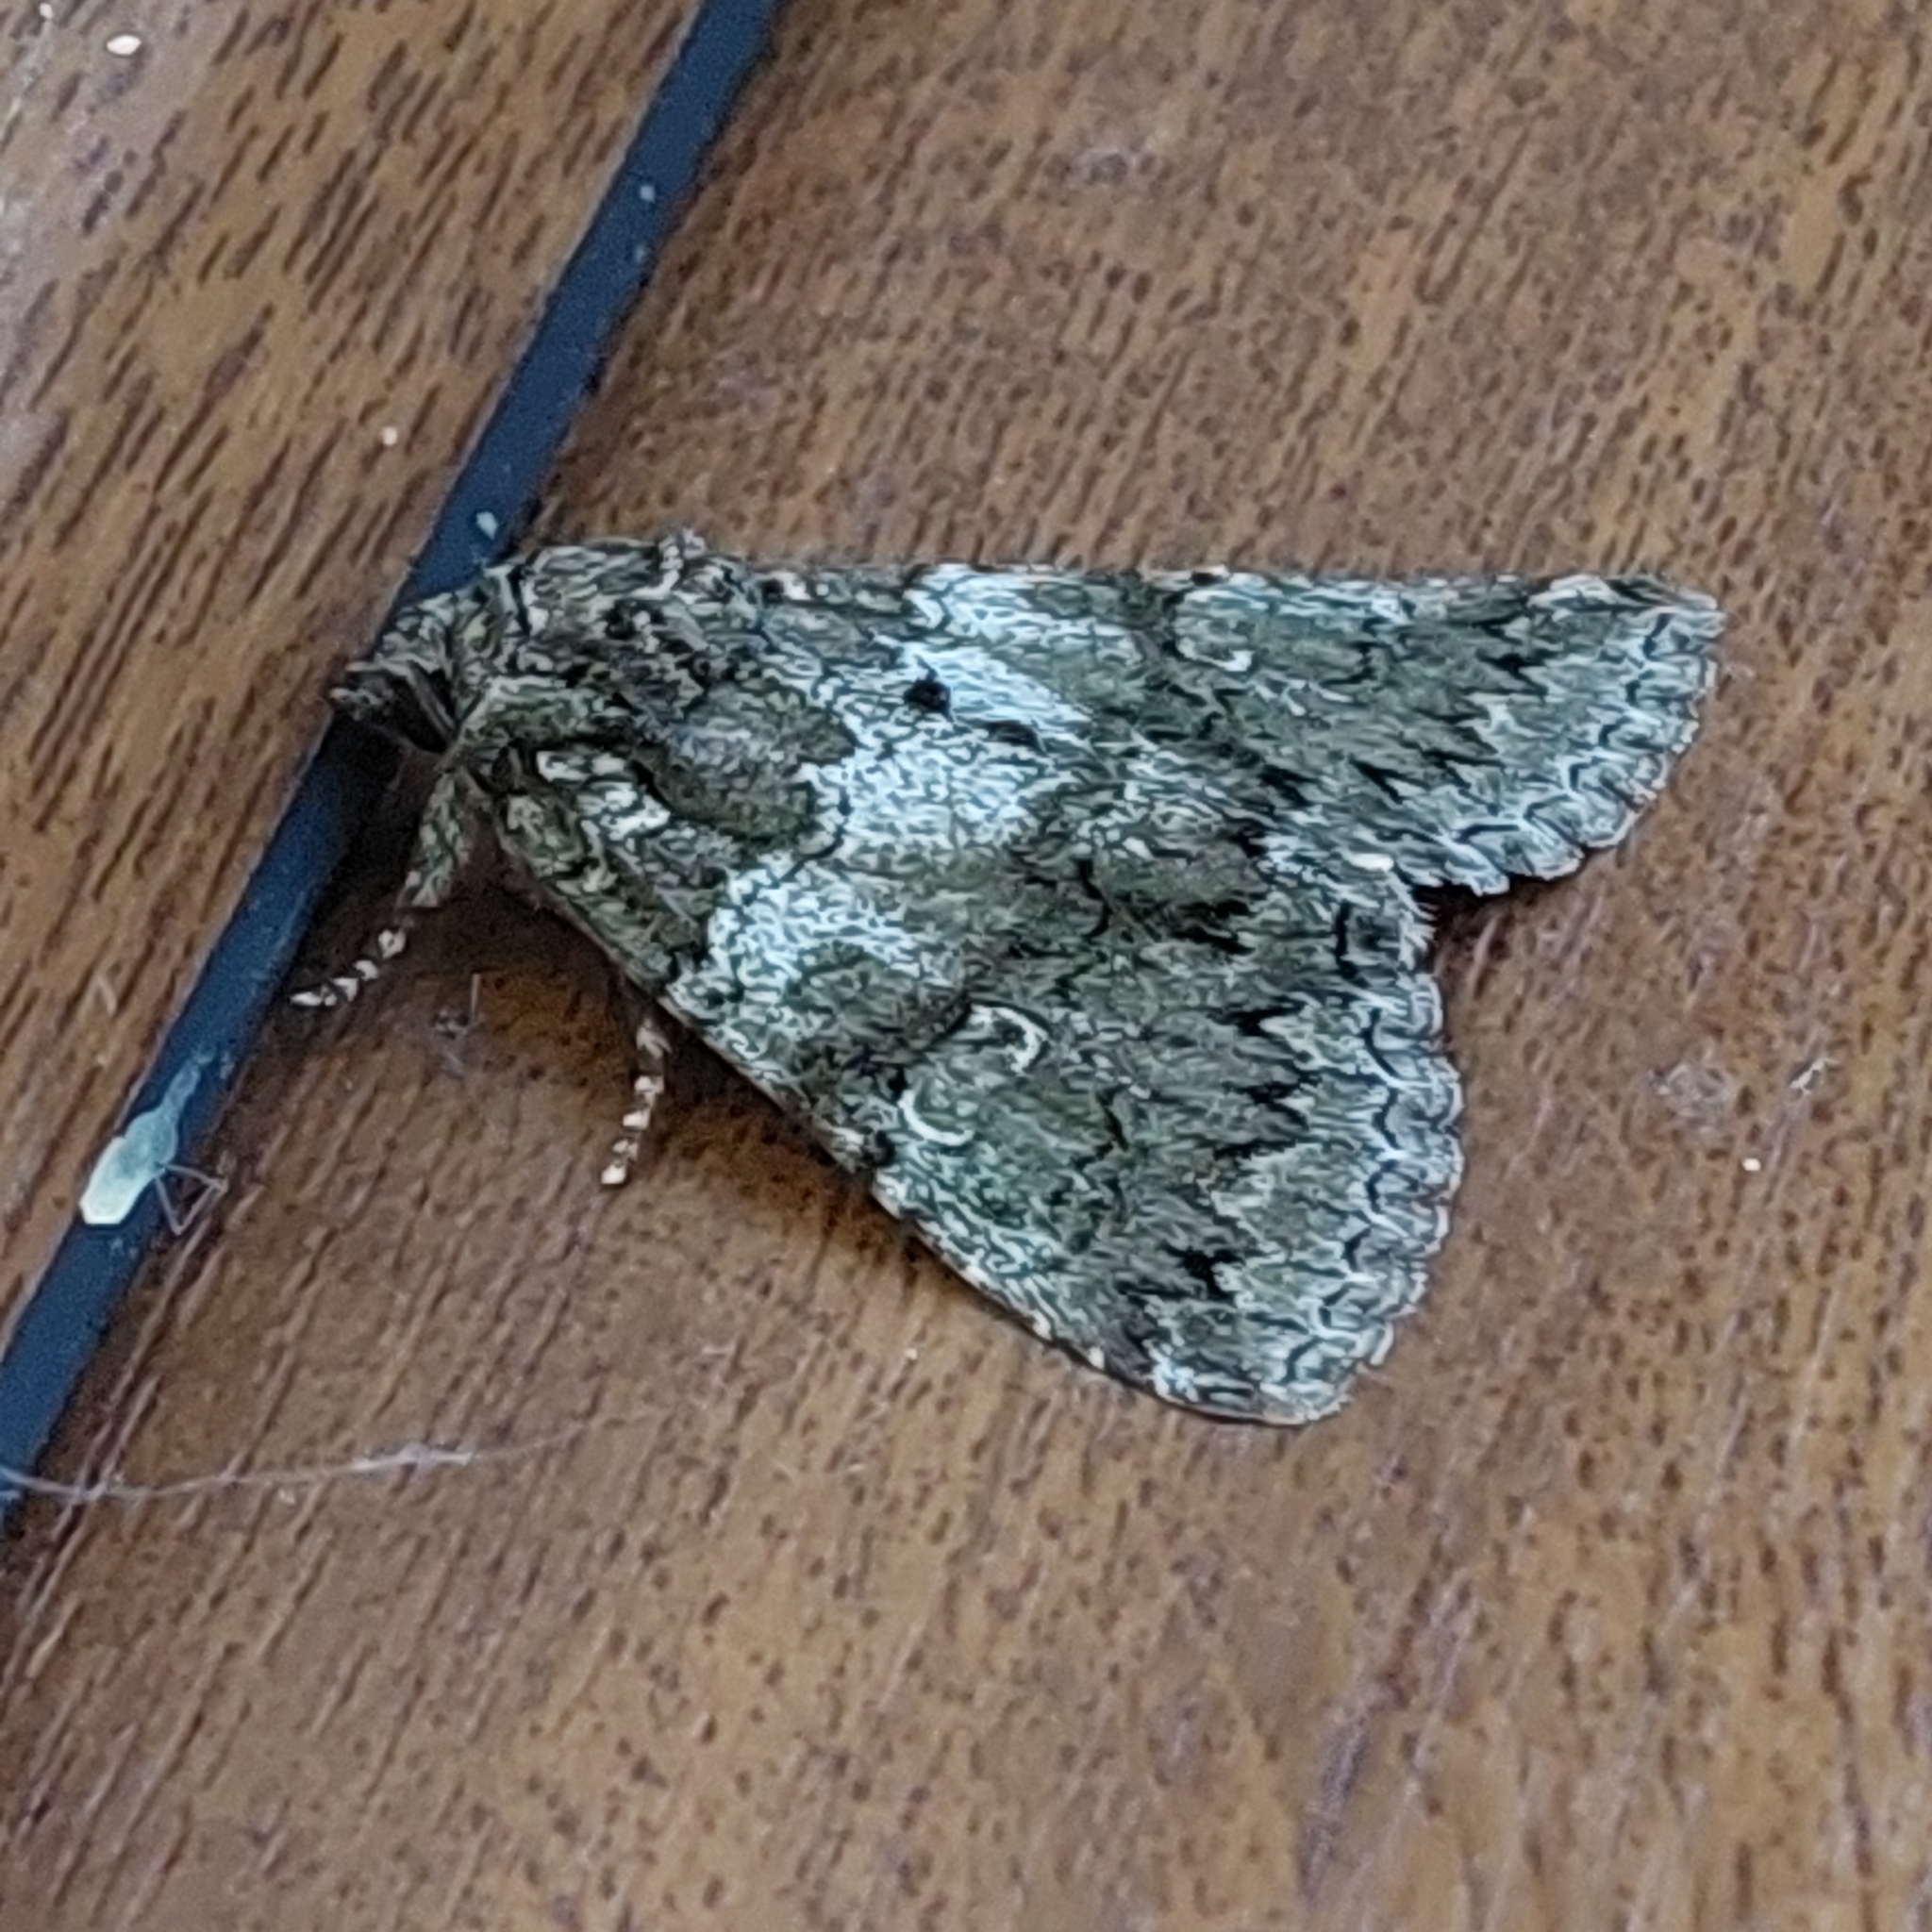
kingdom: Animalia
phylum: Arthropoda
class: Insecta
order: Lepidoptera
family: Noctuidae
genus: Olivenebula
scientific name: Olivenebula subsericata
